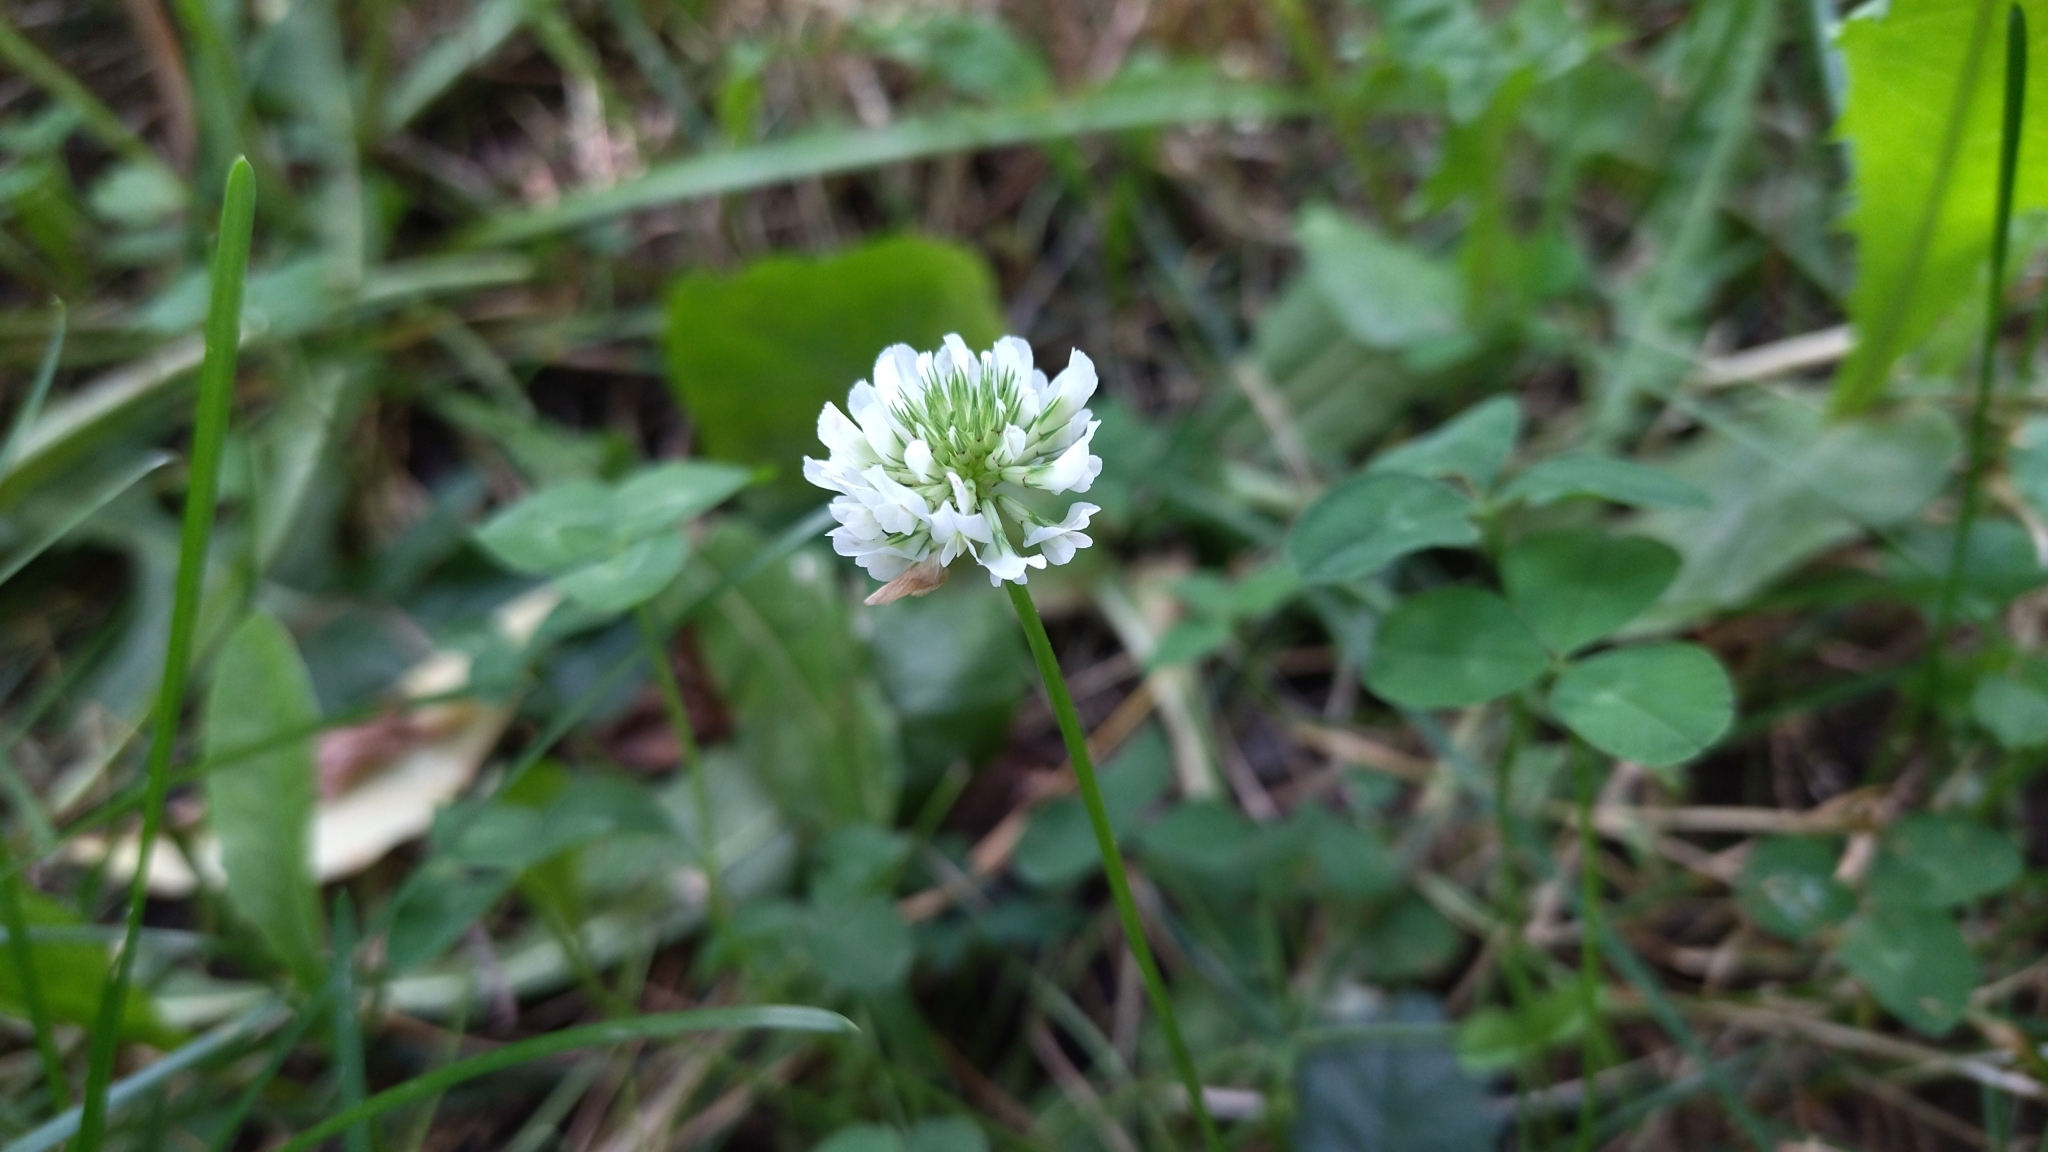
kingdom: Plantae
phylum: Tracheophyta
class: Magnoliopsida
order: Fabales
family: Fabaceae
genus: Trifolium
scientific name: Trifolium repens
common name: White clover
